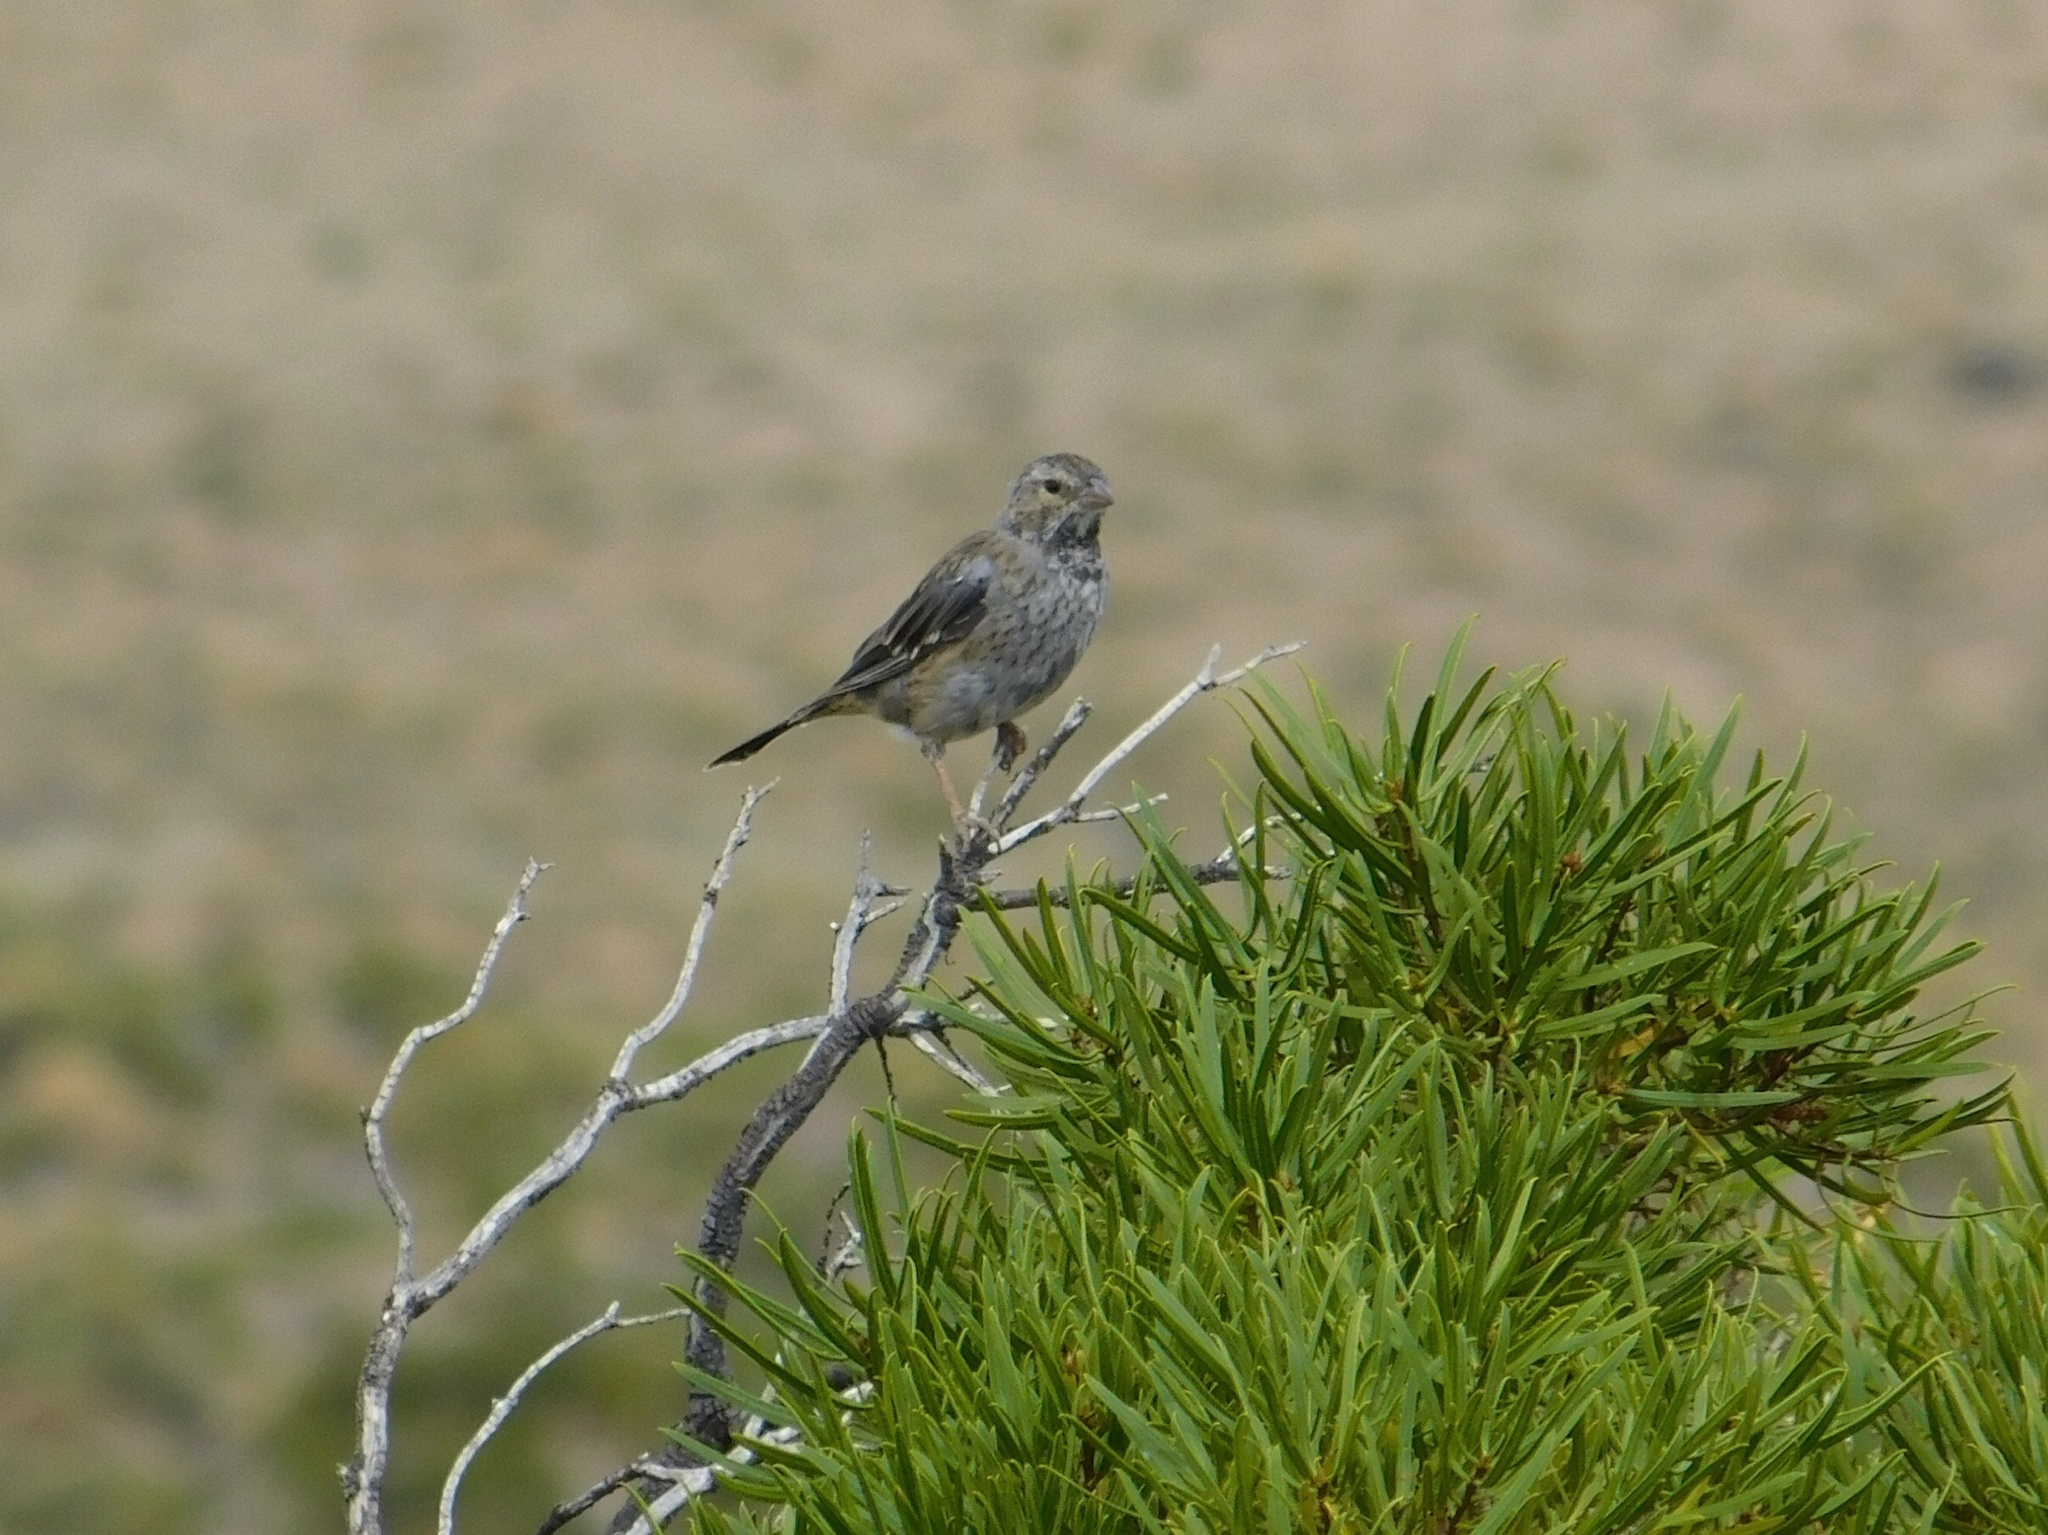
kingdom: Animalia
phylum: Chordata
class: Aves
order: Passeriformes
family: Thraupidae
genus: Rhopospina
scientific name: Rhopospina fruticeti
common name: Mourning sierra finch
